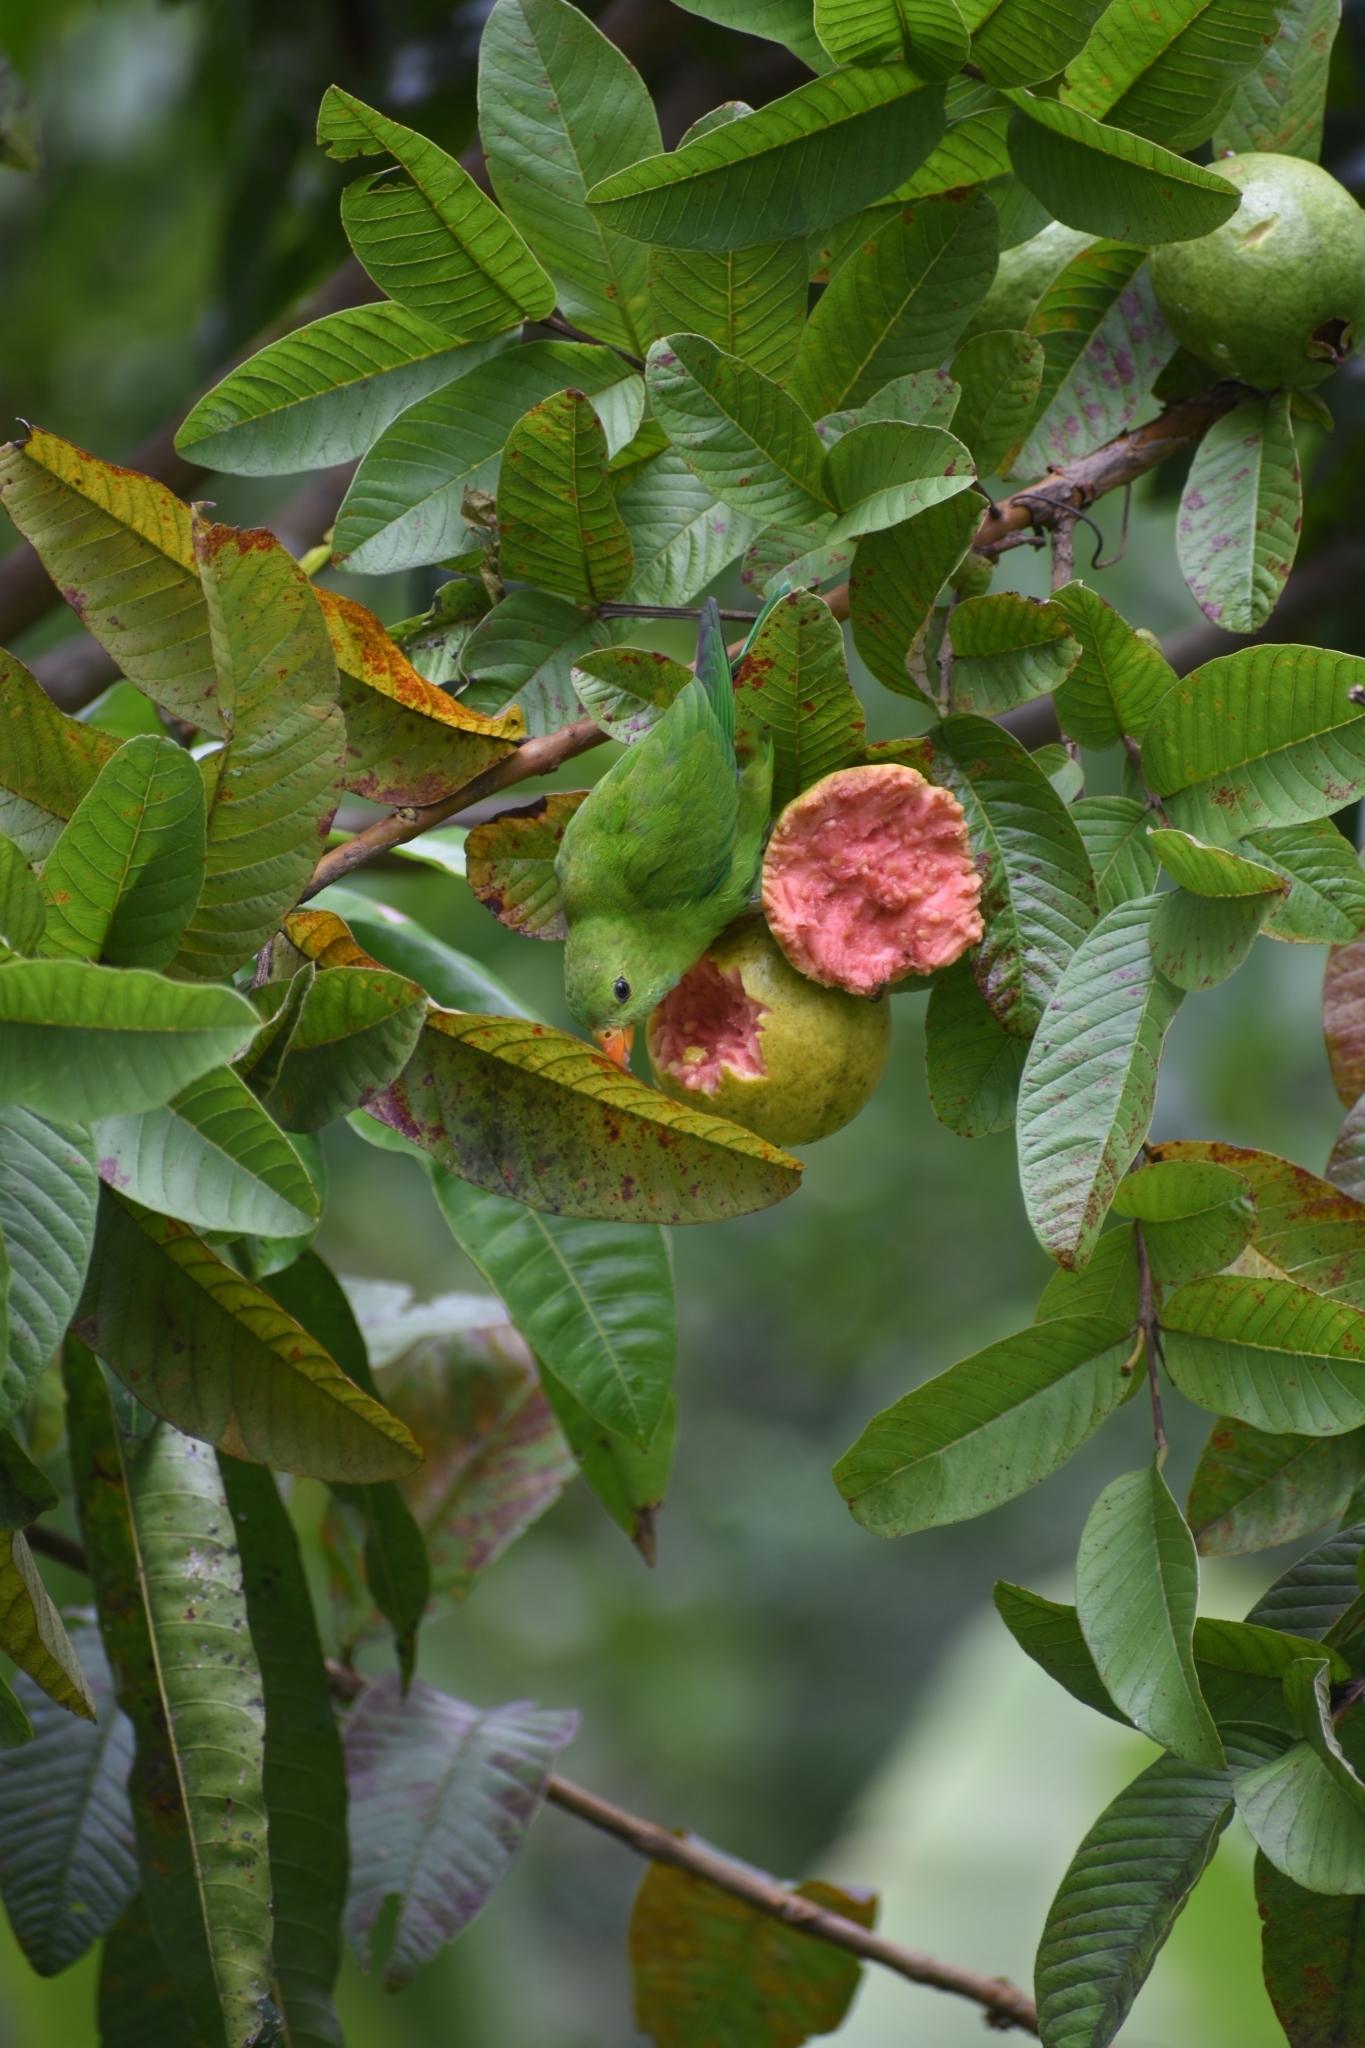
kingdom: Animalia
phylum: Chordata
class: Aves
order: Psittaciformes
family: Psittacidae
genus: Loriculus
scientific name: Loriculus vernalis
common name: Vernal hanging parrot
